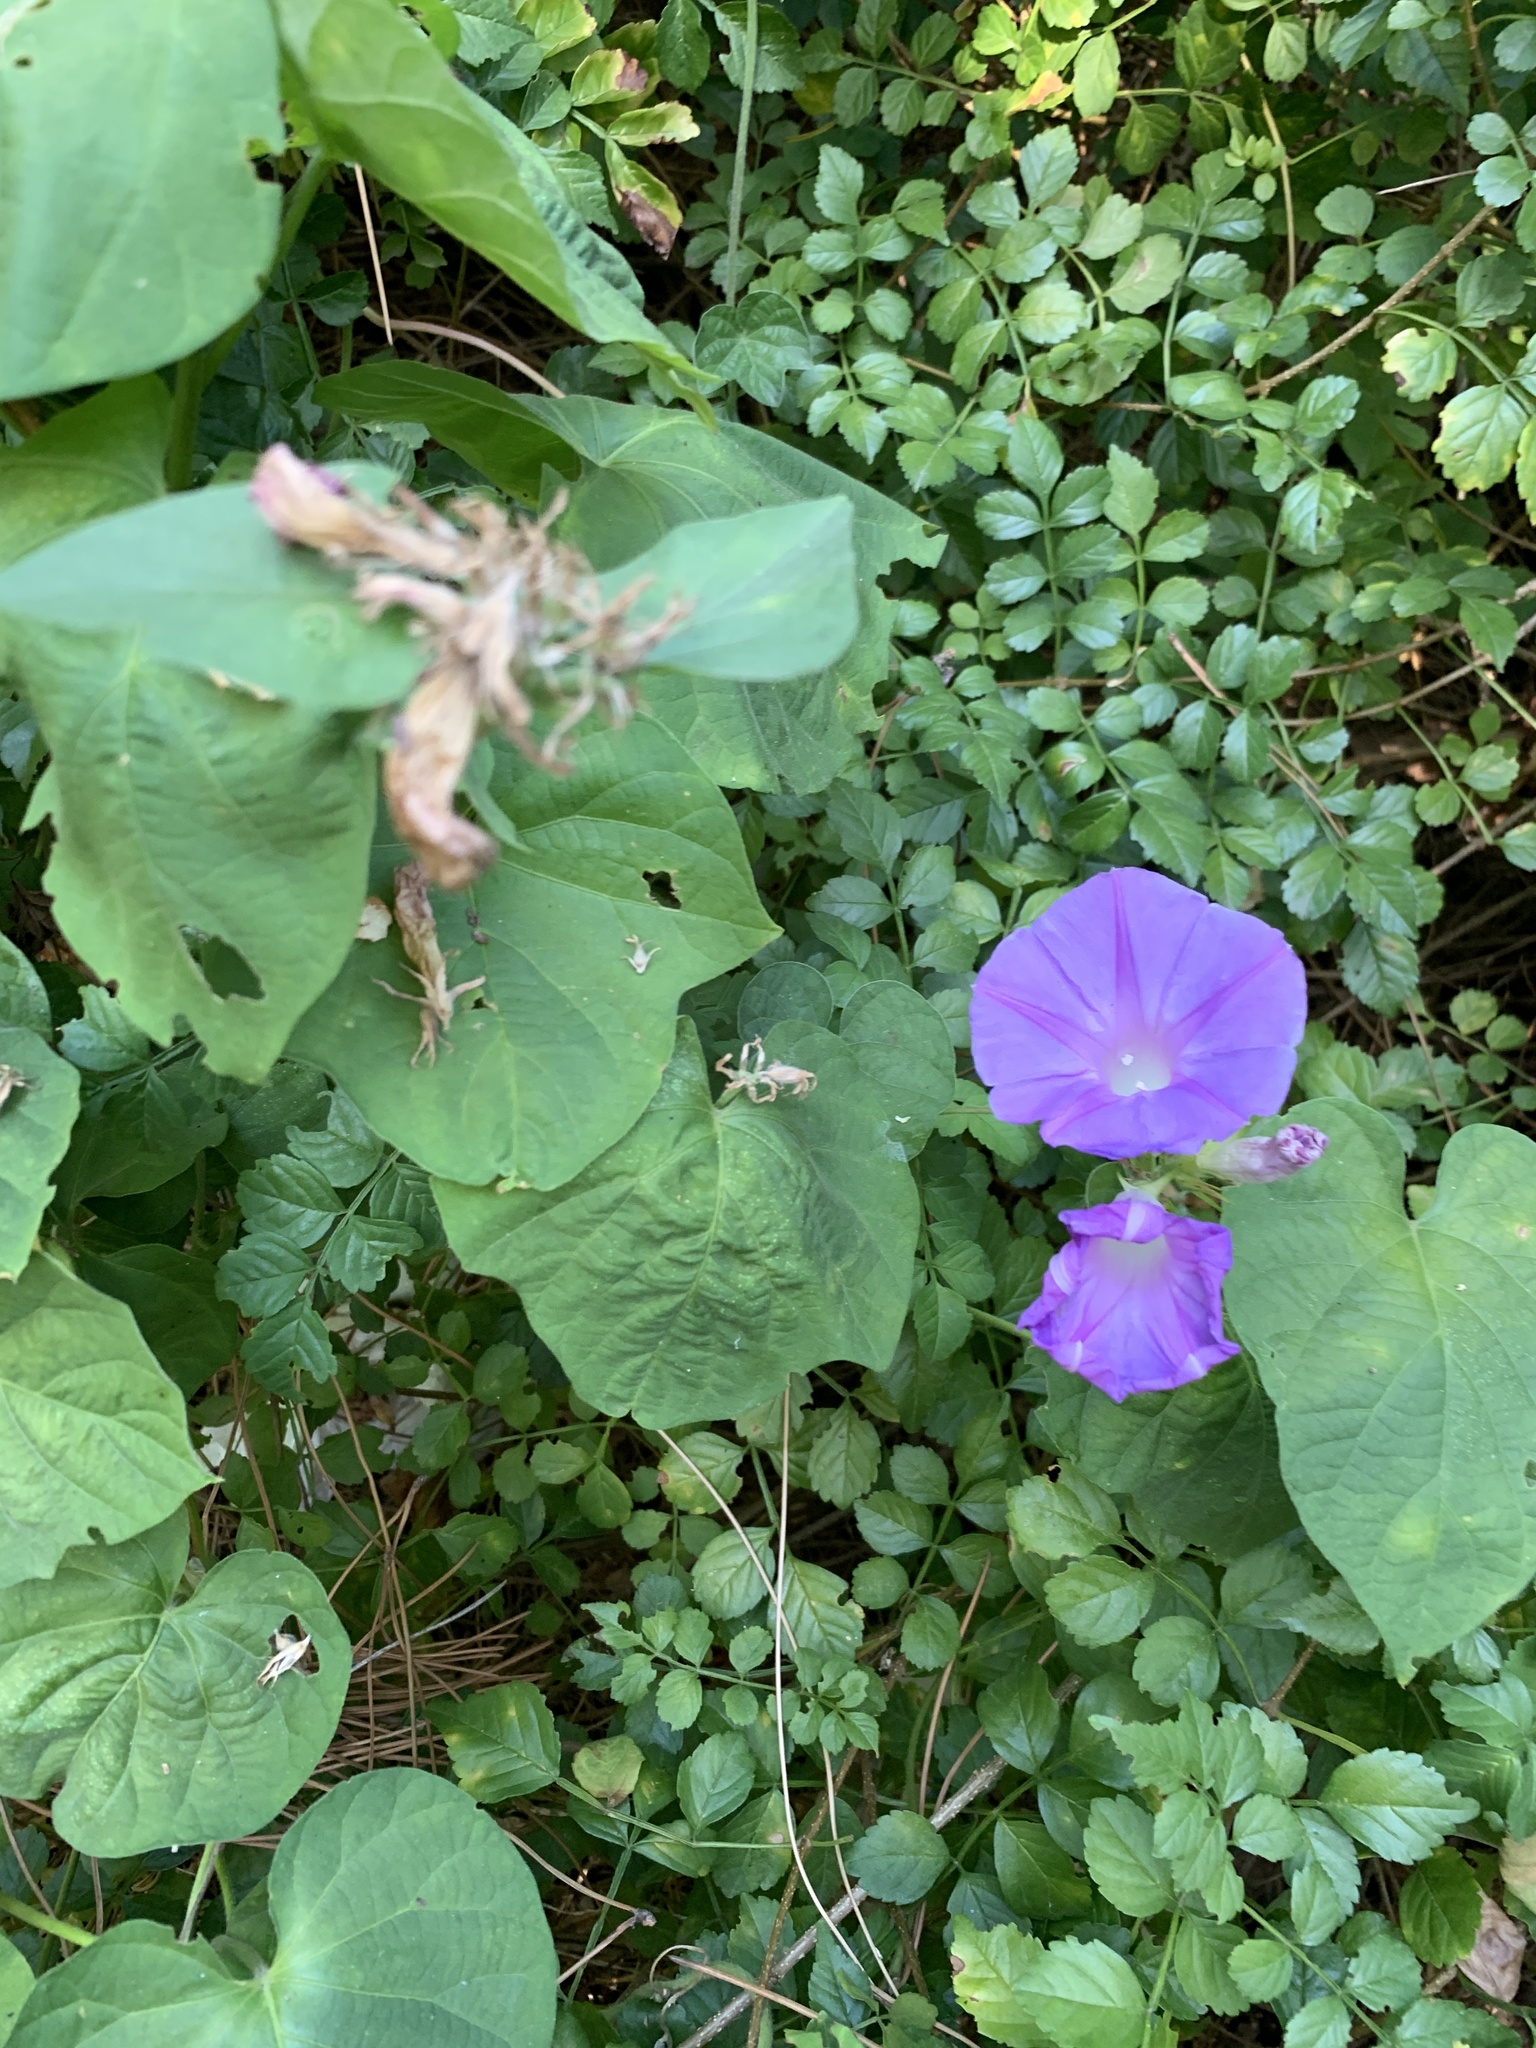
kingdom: Plantae
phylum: Tracheophyta
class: Magnoliopsida
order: Solanales
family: Convolvulaceae
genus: Ipomoea
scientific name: Ipomoea indica
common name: Blue dawnflower
